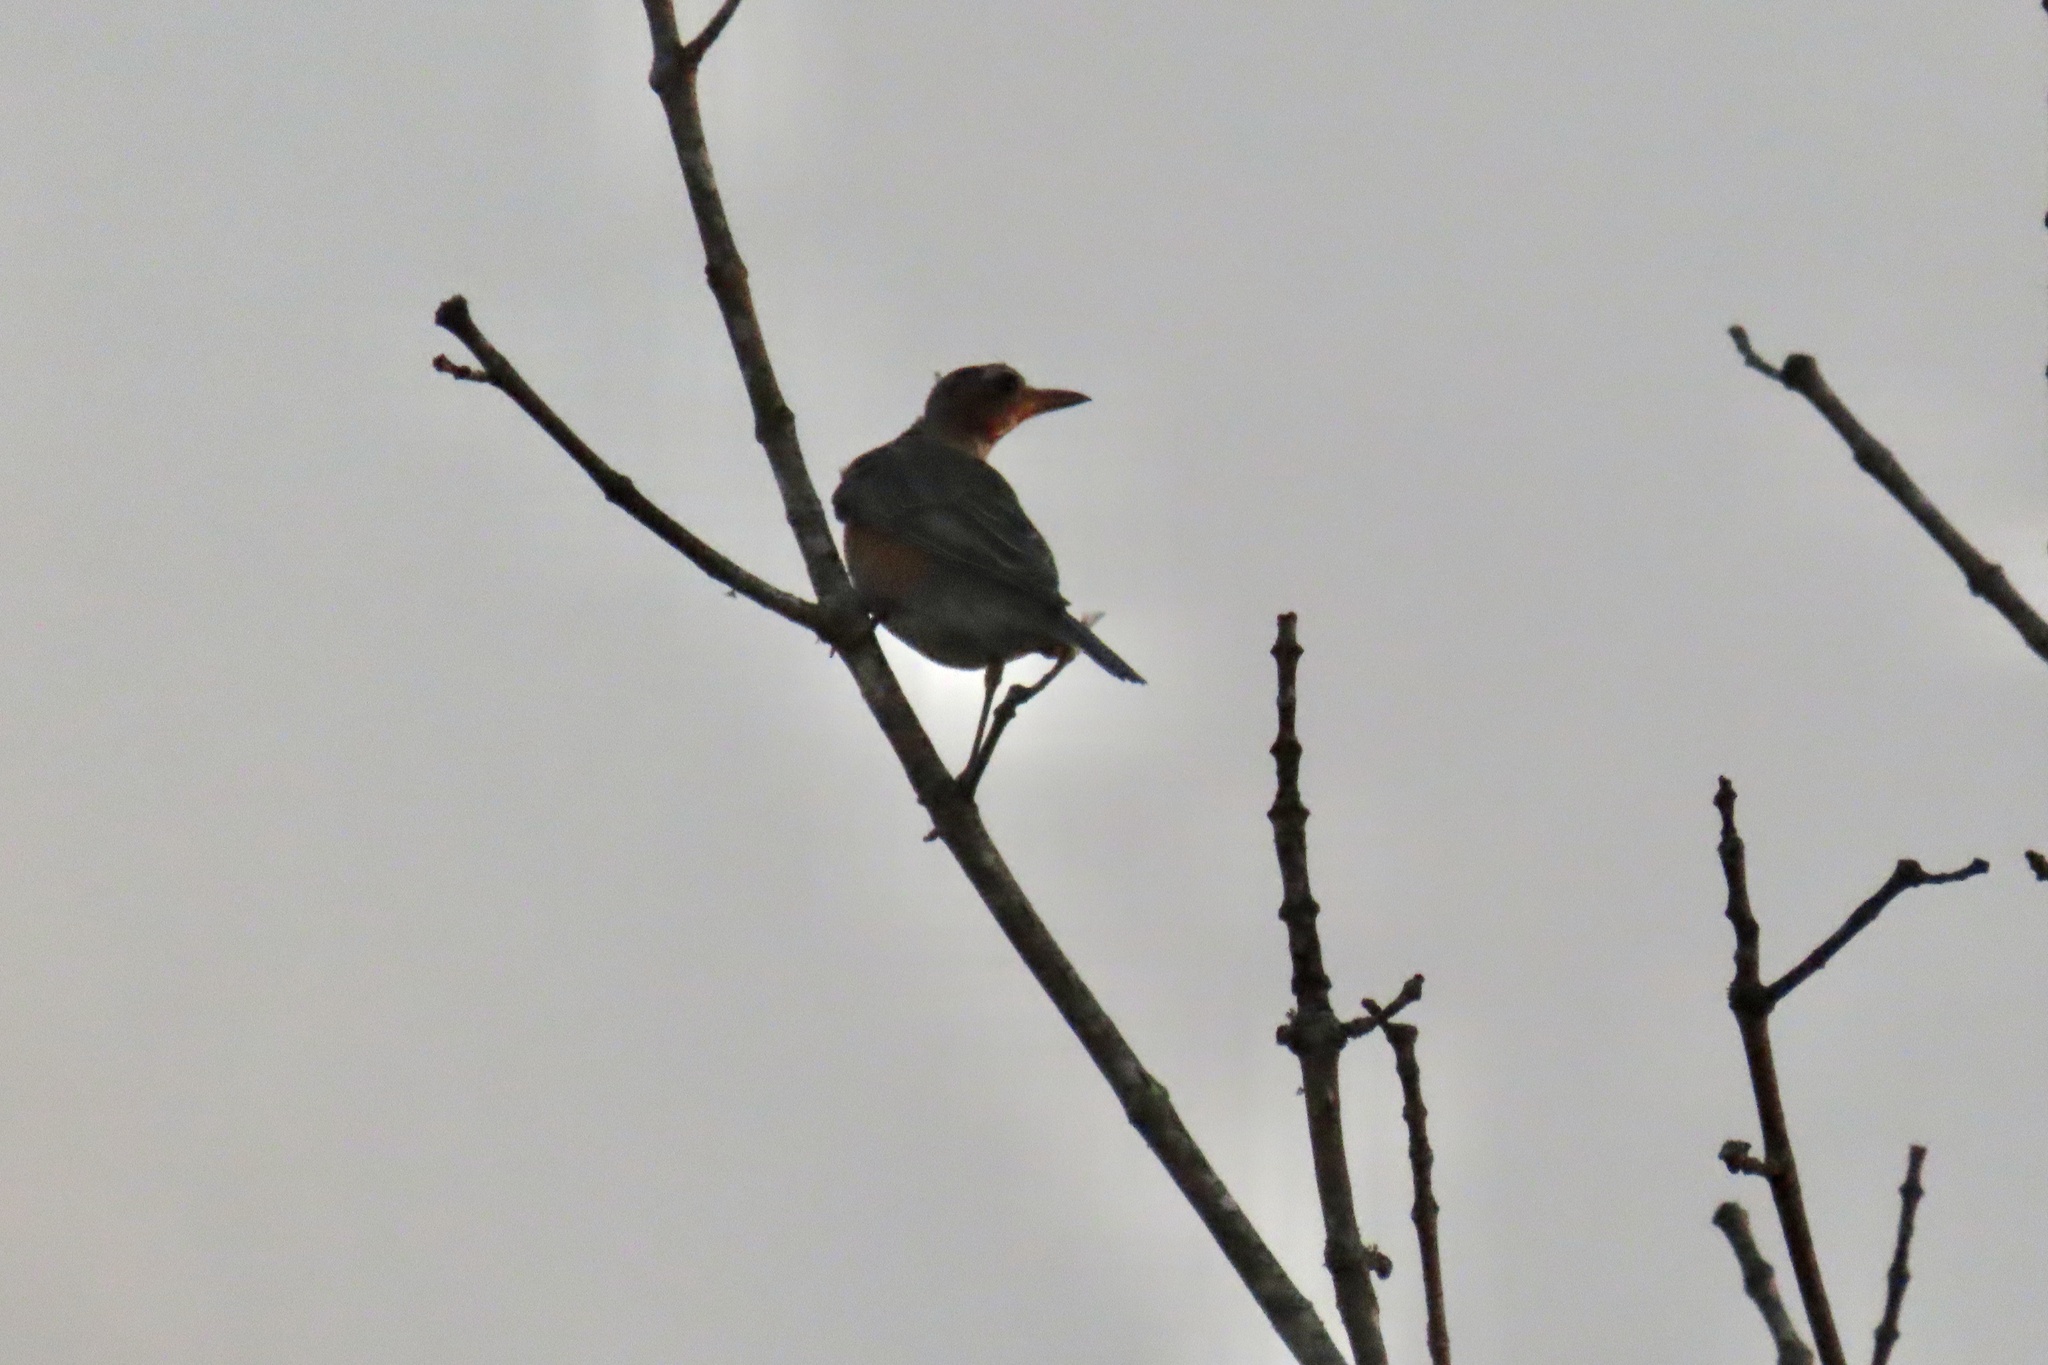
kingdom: Animalia
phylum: Chordata
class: Aves
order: Passeriformes
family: Turdidae
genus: Turdus
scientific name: Turdus migratorius
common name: American robin
